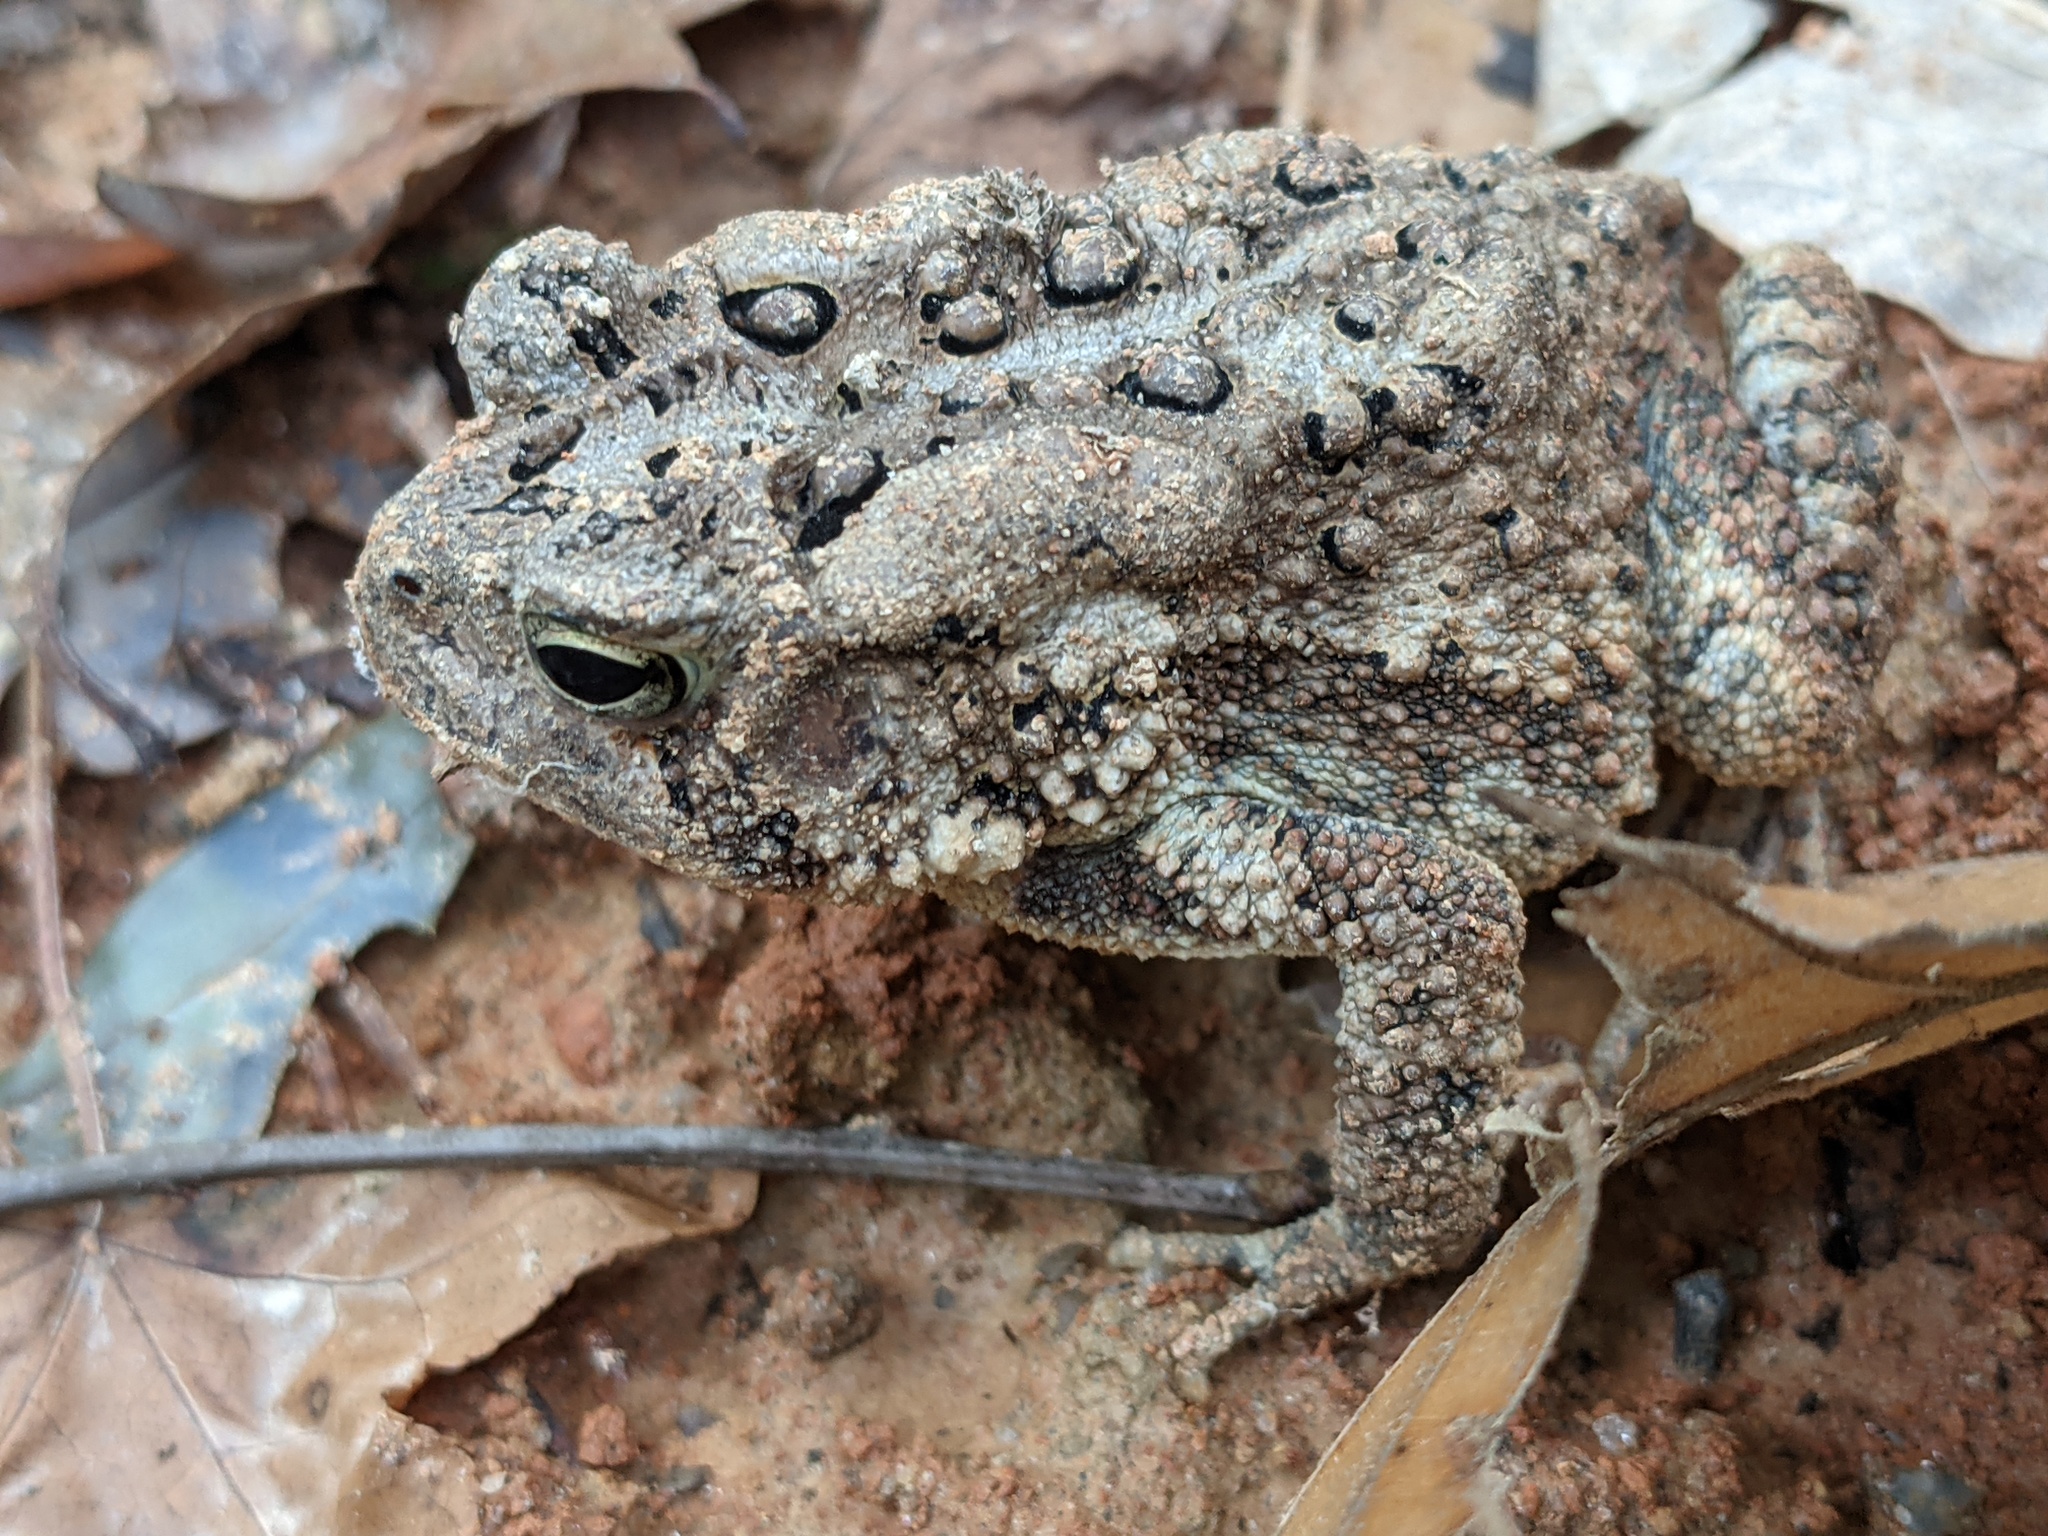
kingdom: Animalia
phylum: Chordata
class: Amphibia
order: Anura
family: Bufonidae
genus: Anaxyrus
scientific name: Anaxyrus americanus
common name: American toad
